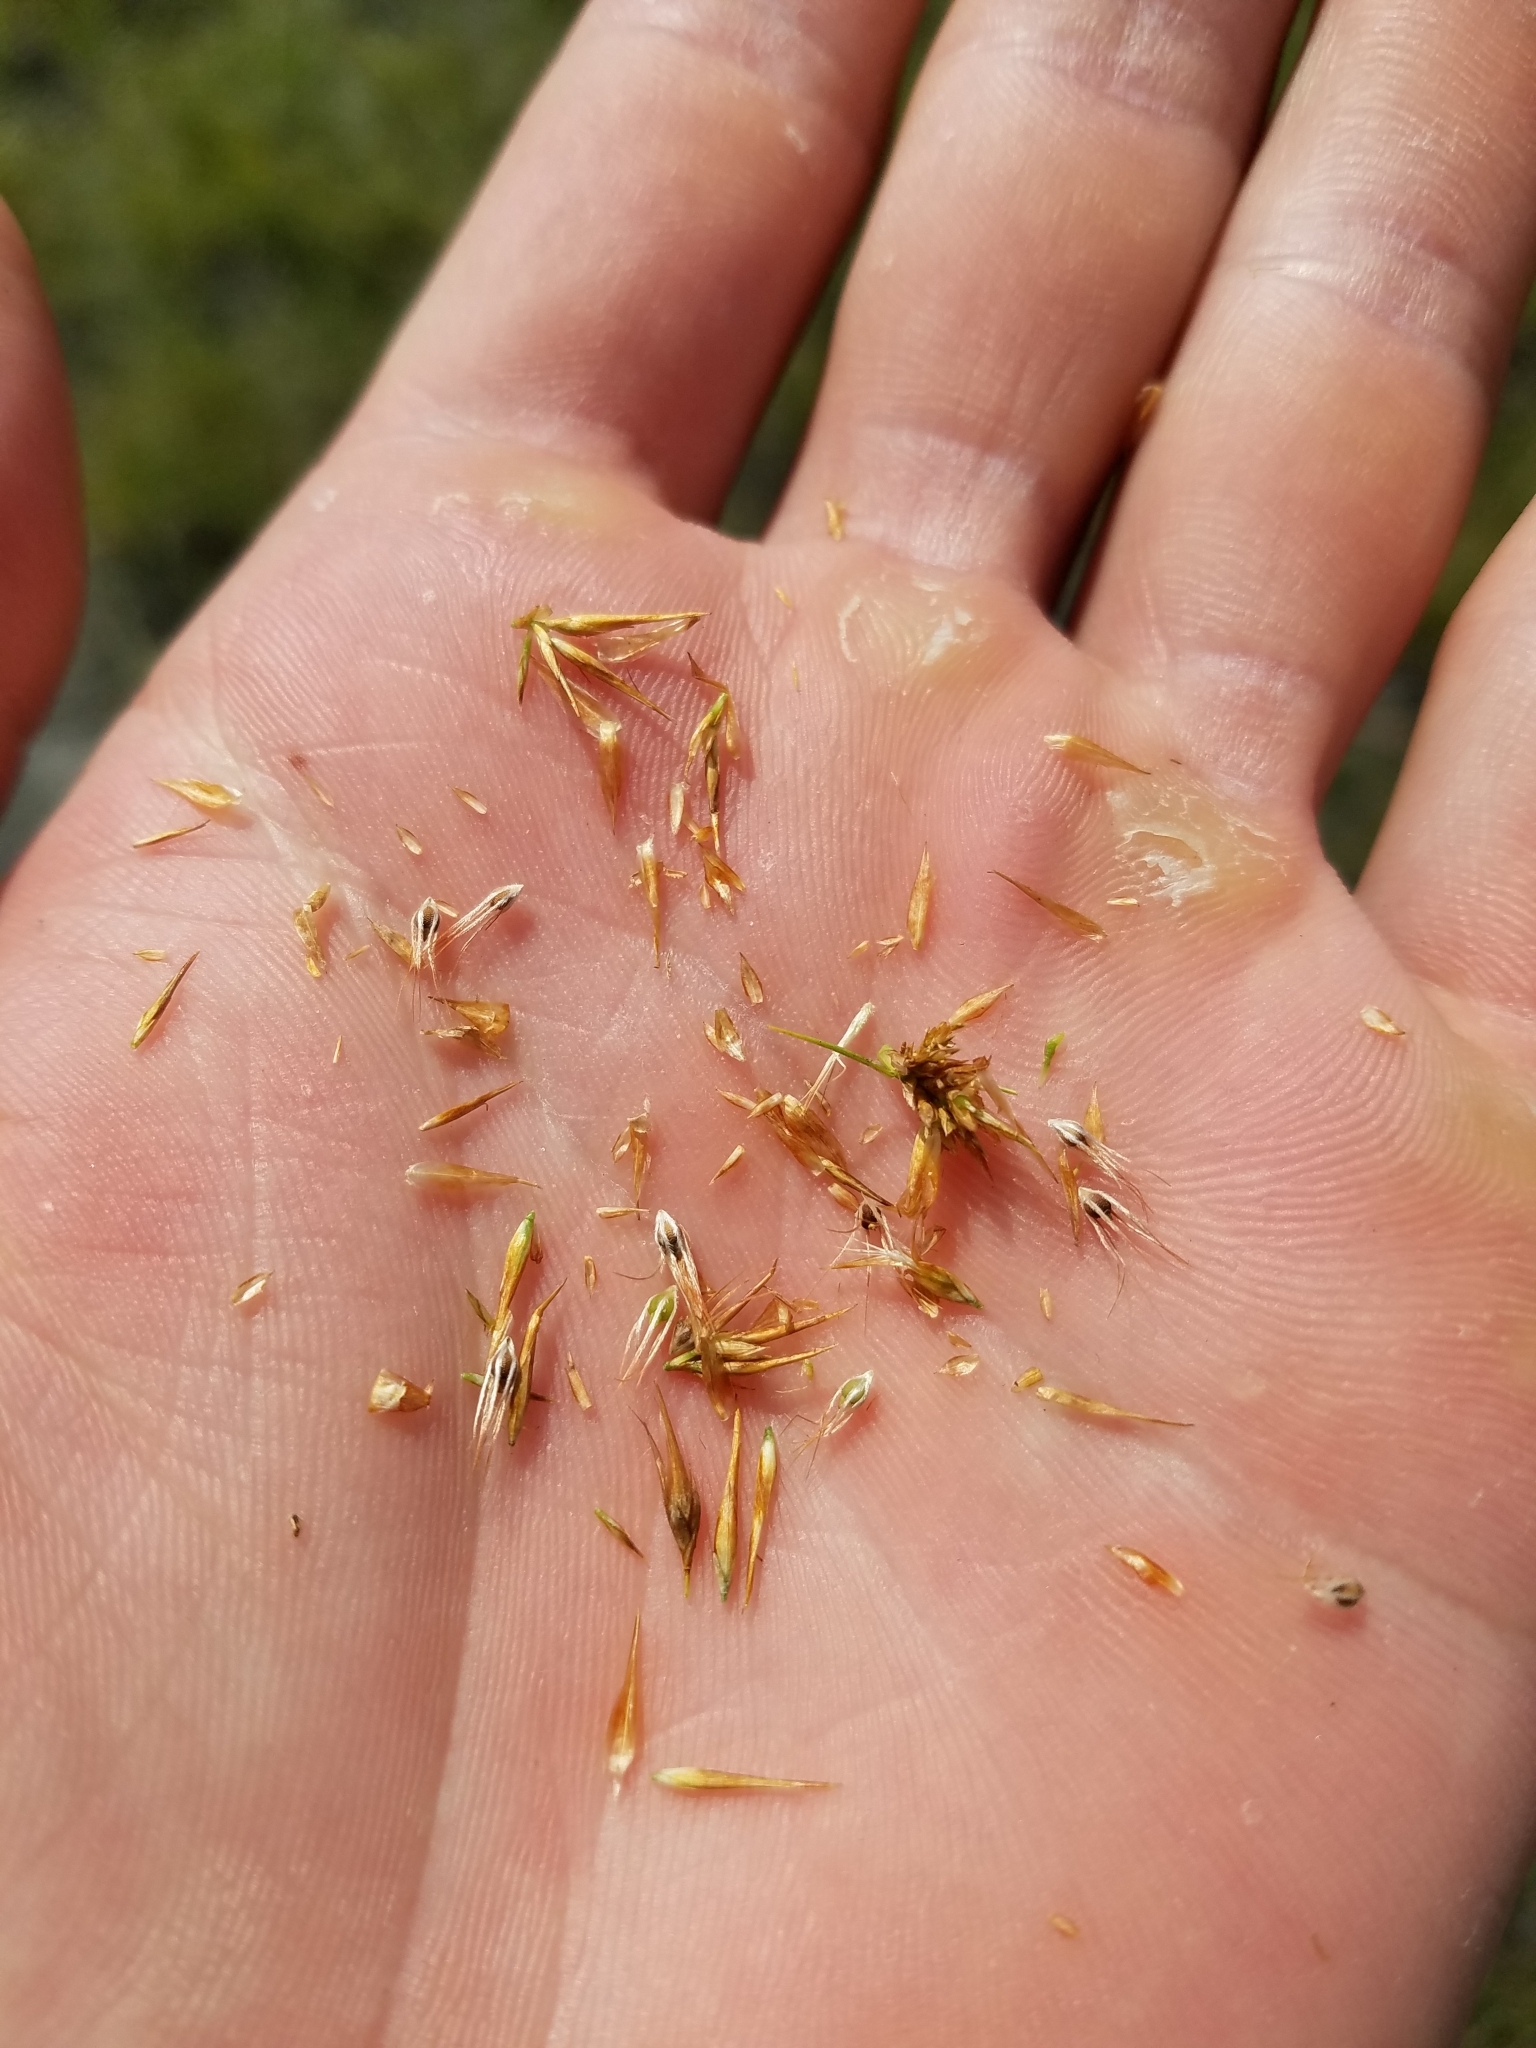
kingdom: Plantae
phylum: Tracheophyta
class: Liliopsida
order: Poales
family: Cyperaceae
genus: Rhynchospora
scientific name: Rhynchospora megaplumosa
